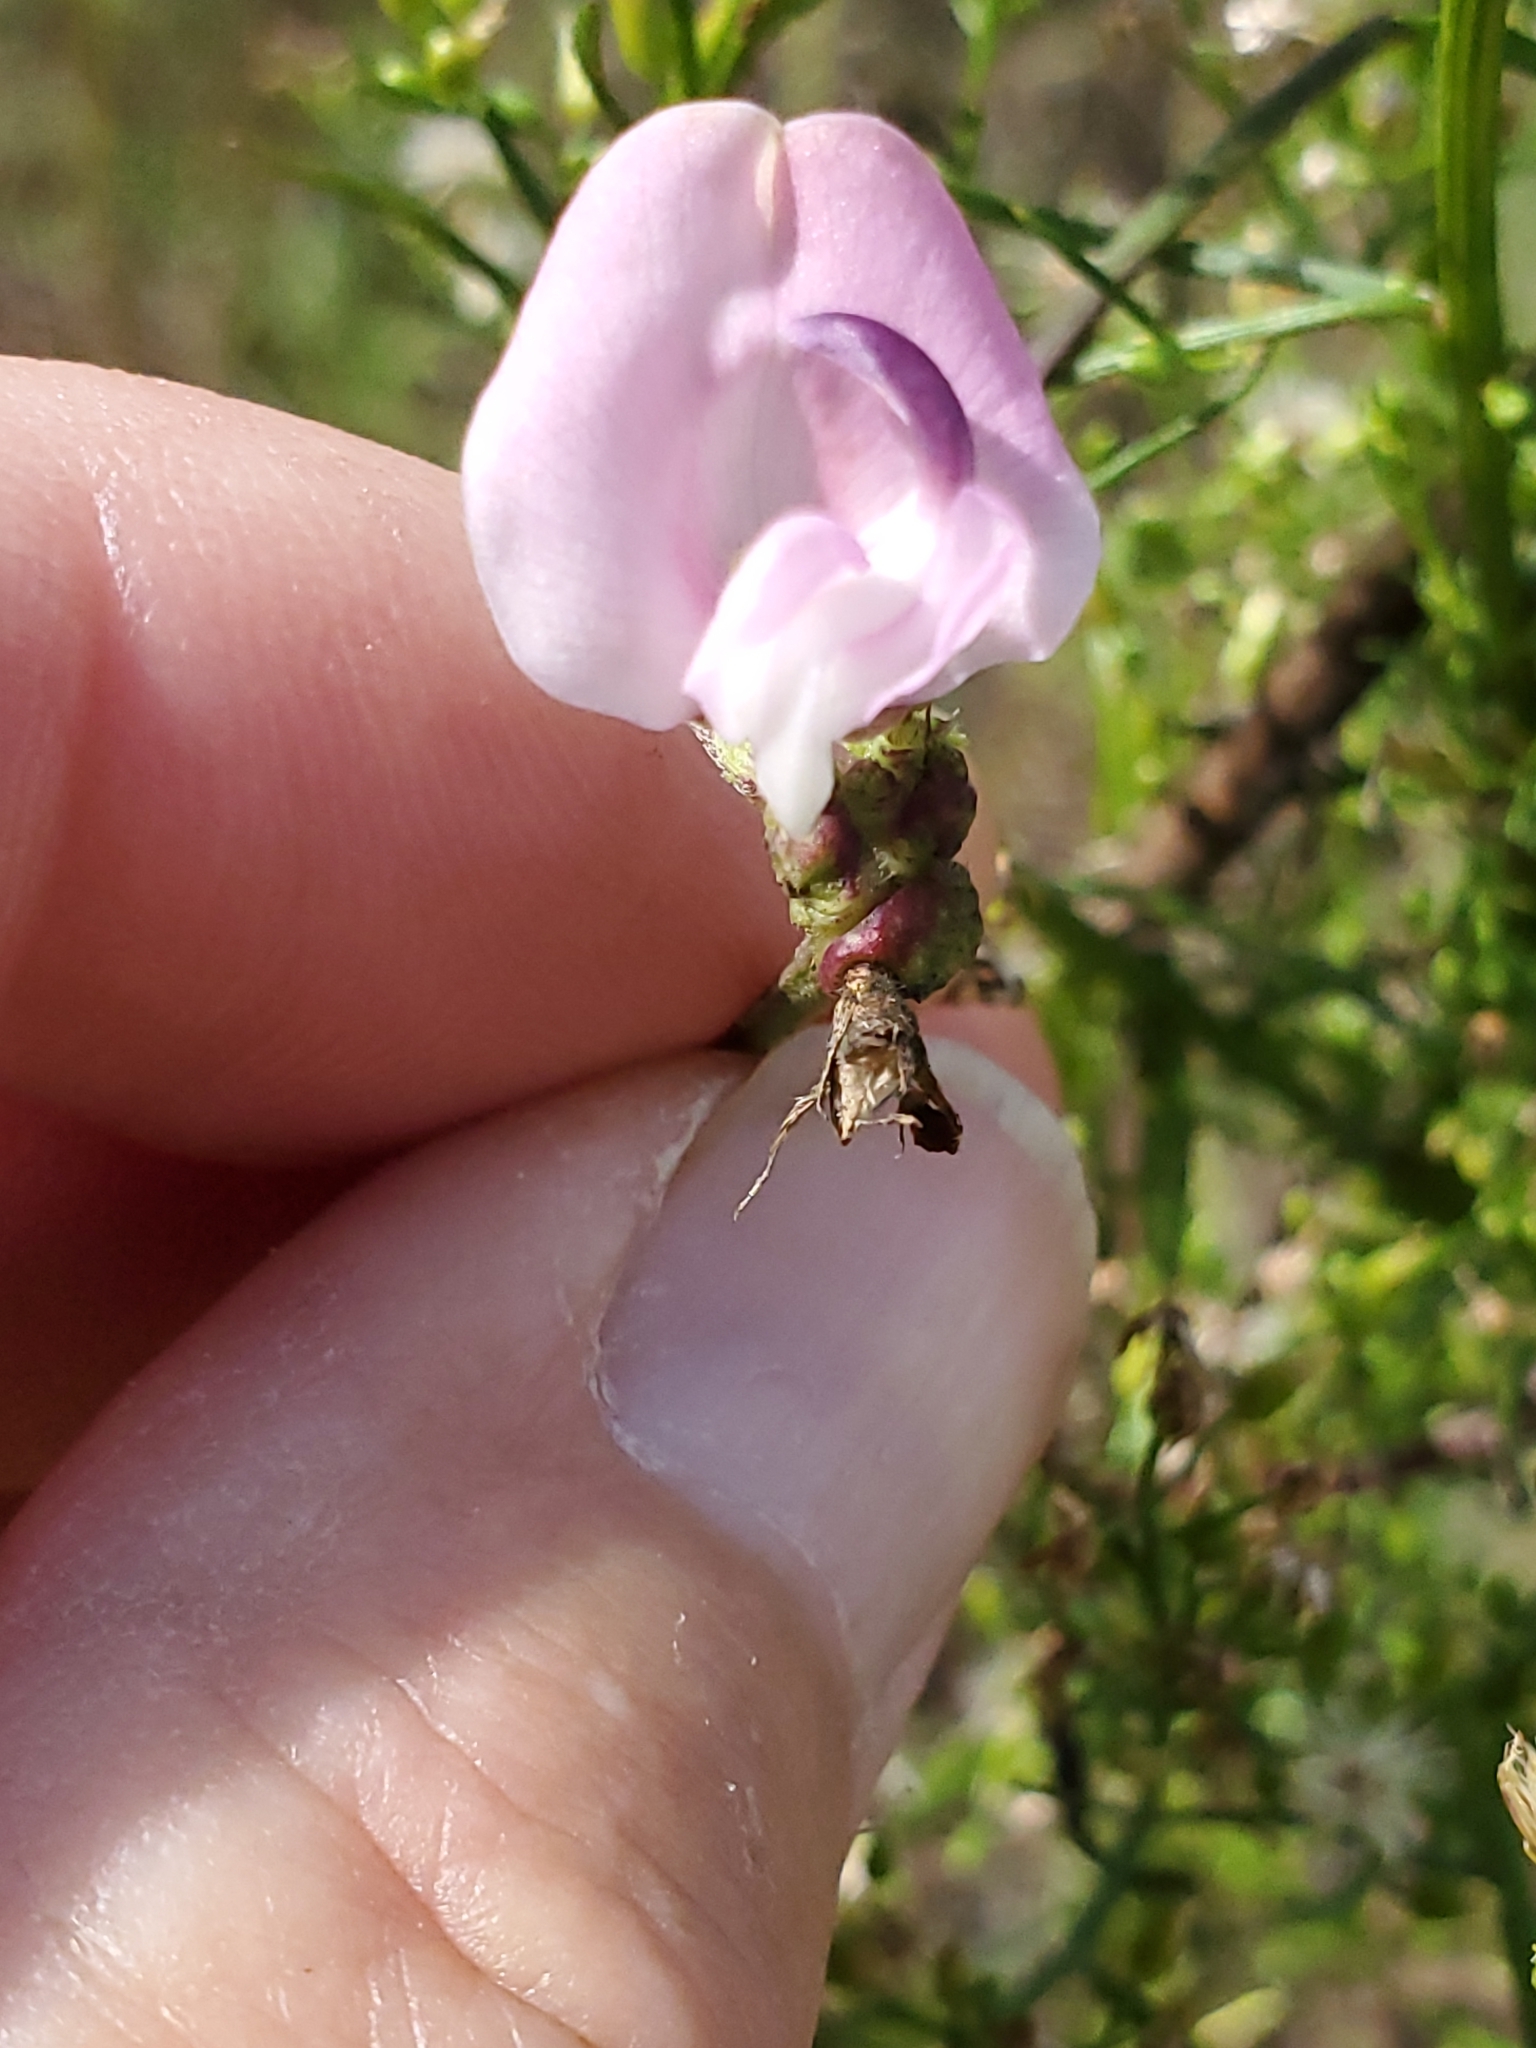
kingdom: Plantae
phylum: Tracheophyta
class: Magnoliopsida
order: Fabales
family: Fabaceae
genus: Strophostyles
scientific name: Strophostyles helvola
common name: Trailing wild bean
